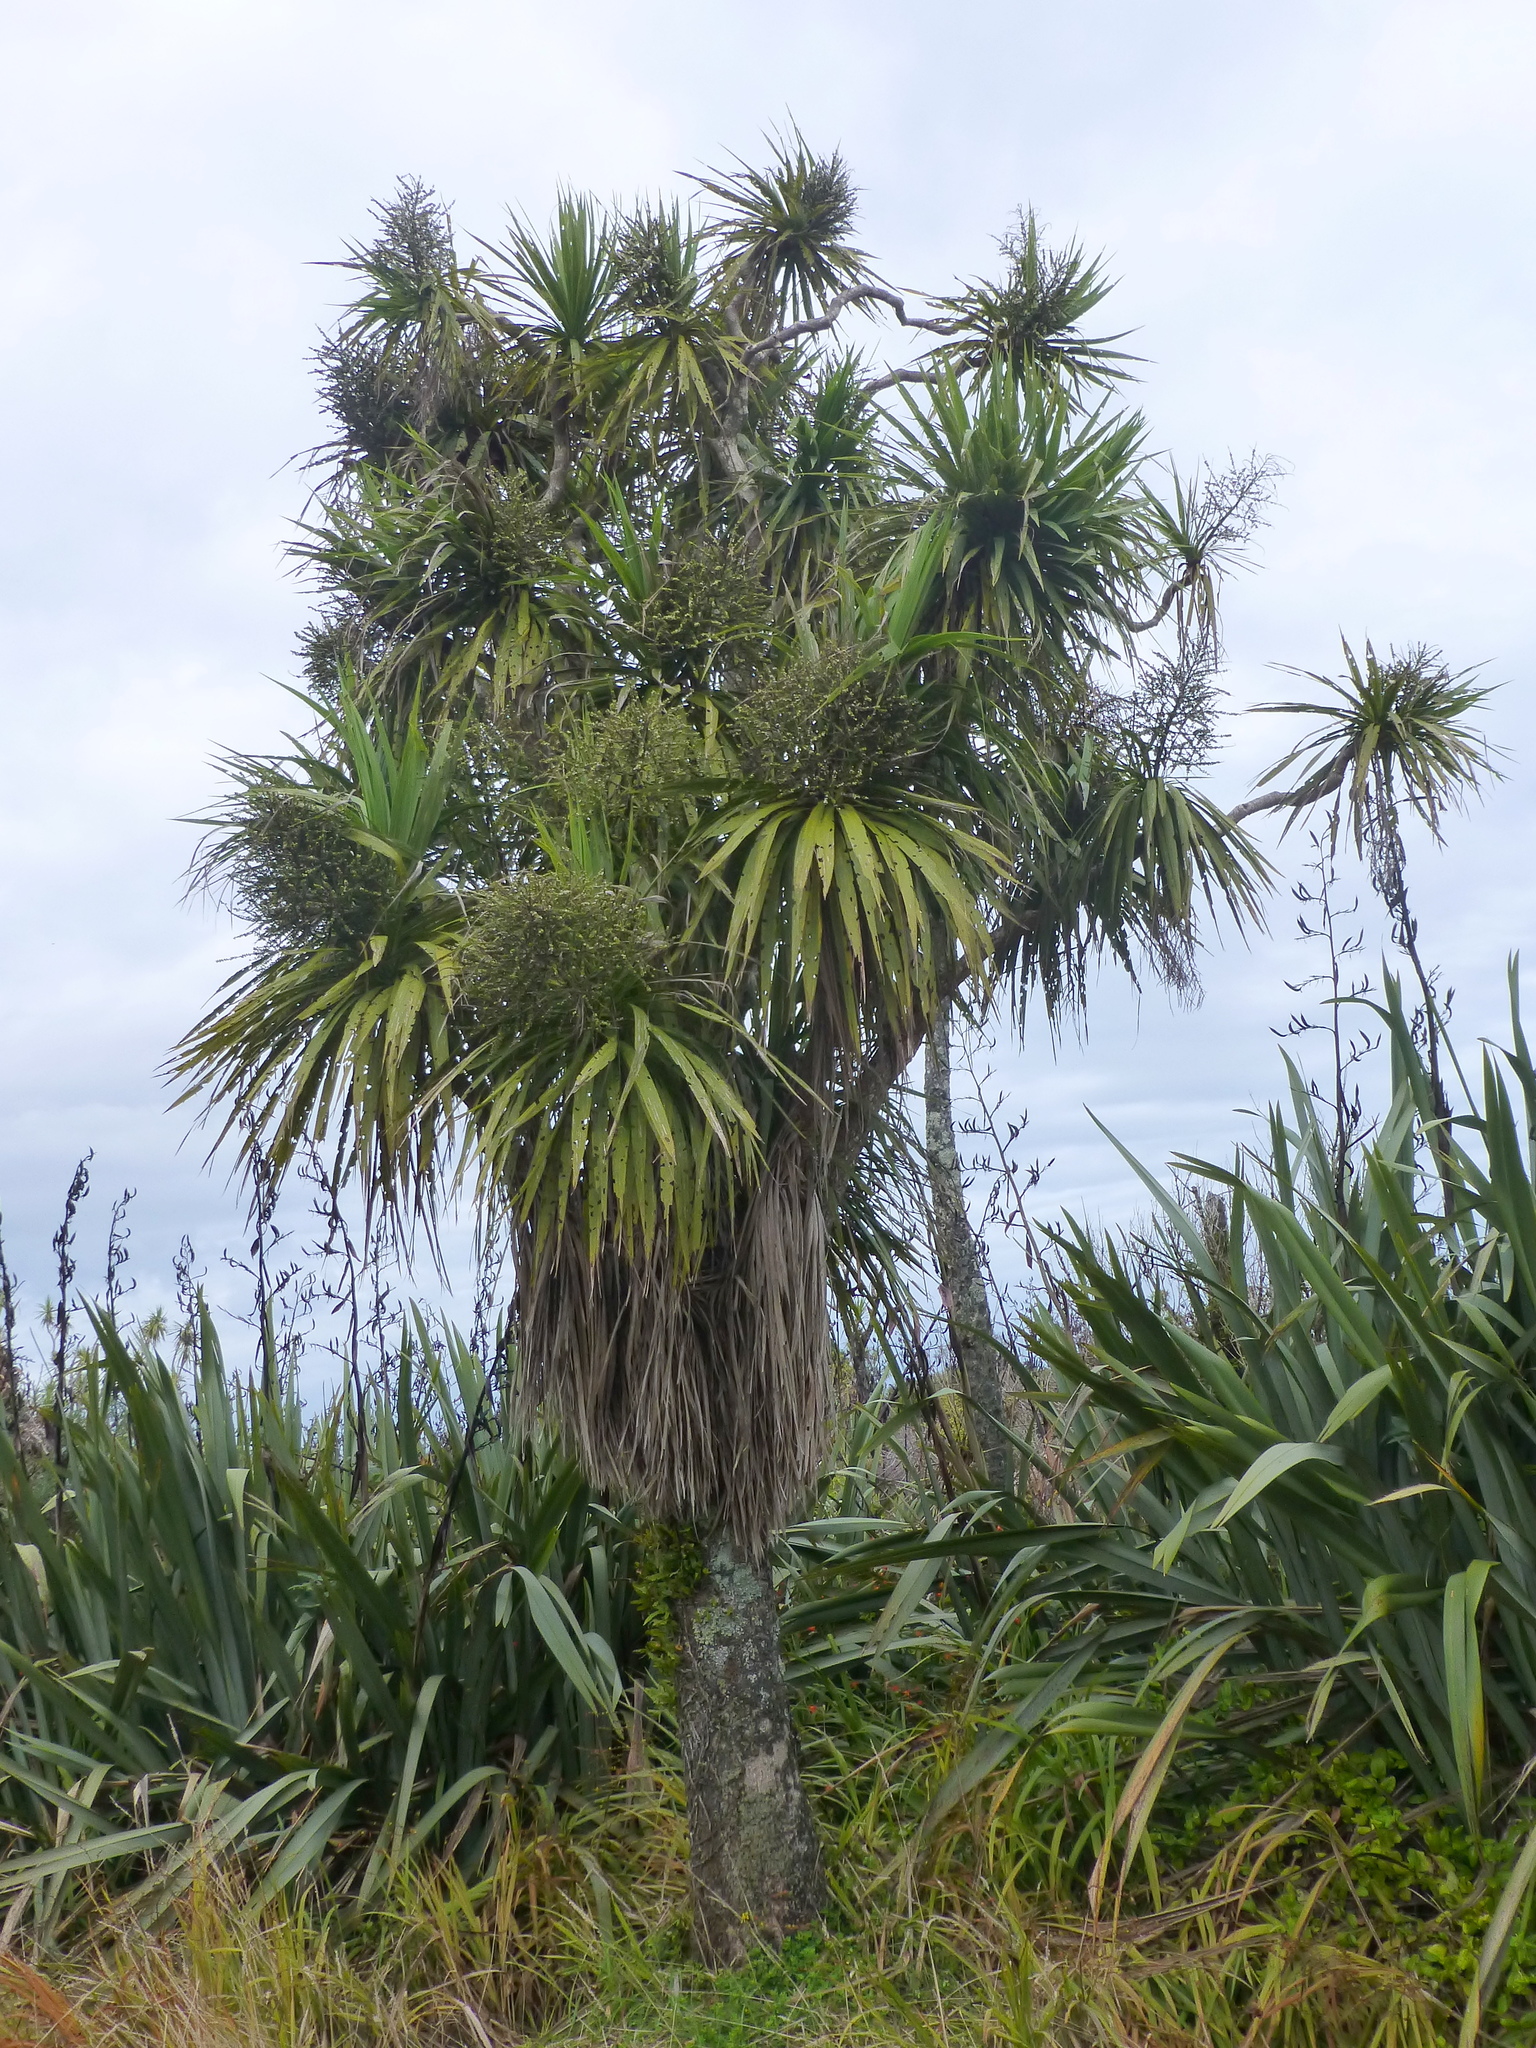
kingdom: Plantae
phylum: Tracheophyta
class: Liliopsida
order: Asparagales
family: Asparagaceae
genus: Cordyline
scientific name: Cordyline australis
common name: Cabbage-palm
